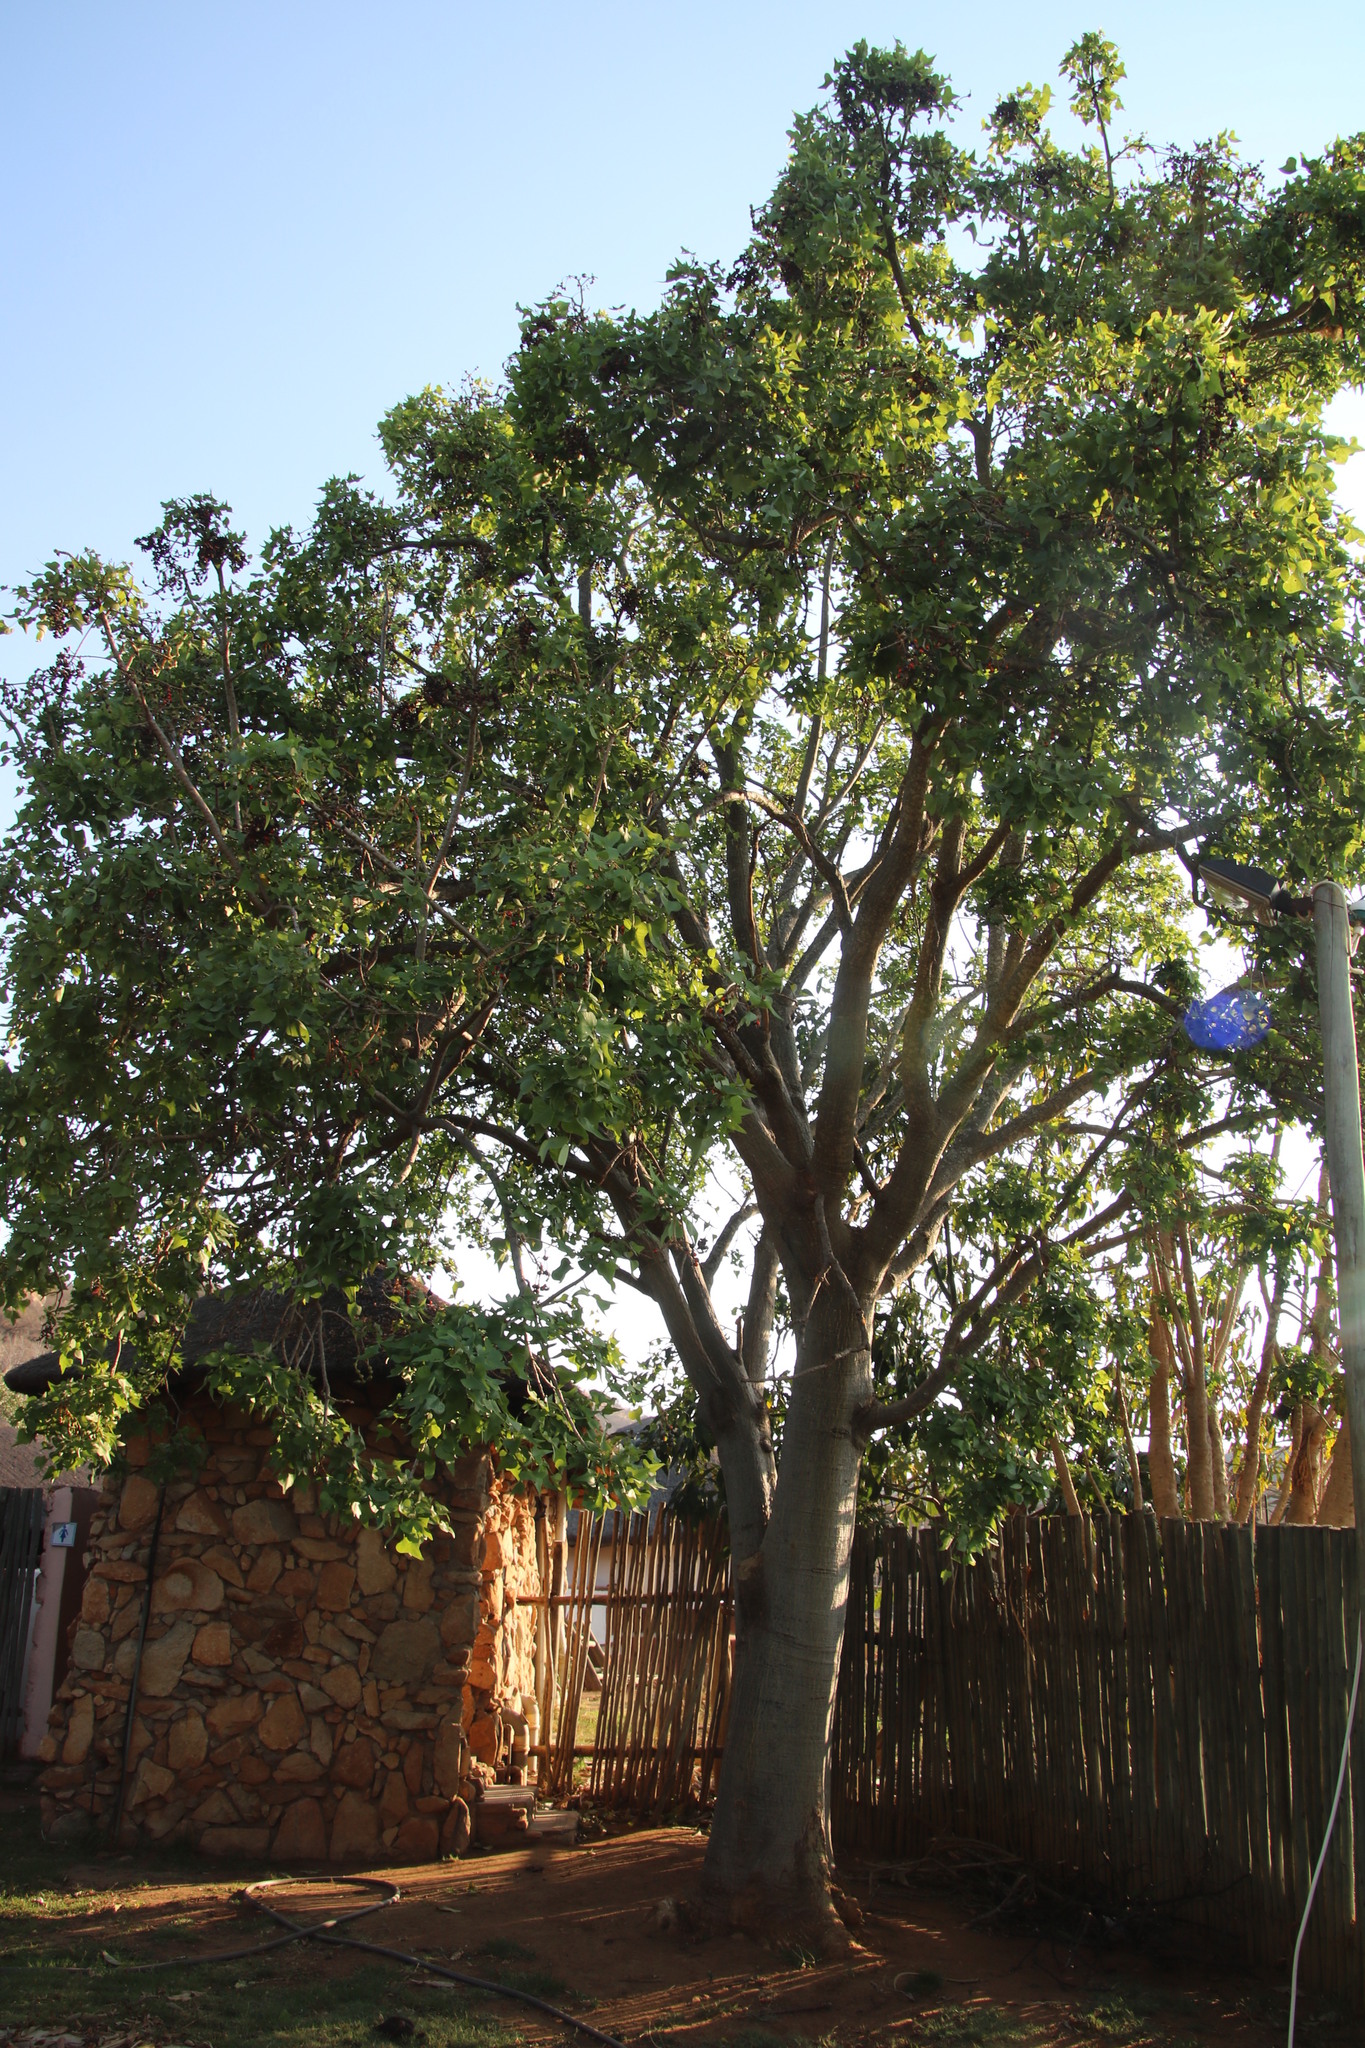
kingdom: Plantae
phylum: Tracheophyta
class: Magnoliopsida
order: Fabales
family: Fabaceae
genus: Erythrina
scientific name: Erythrina lysistemon
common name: Common coral tree
